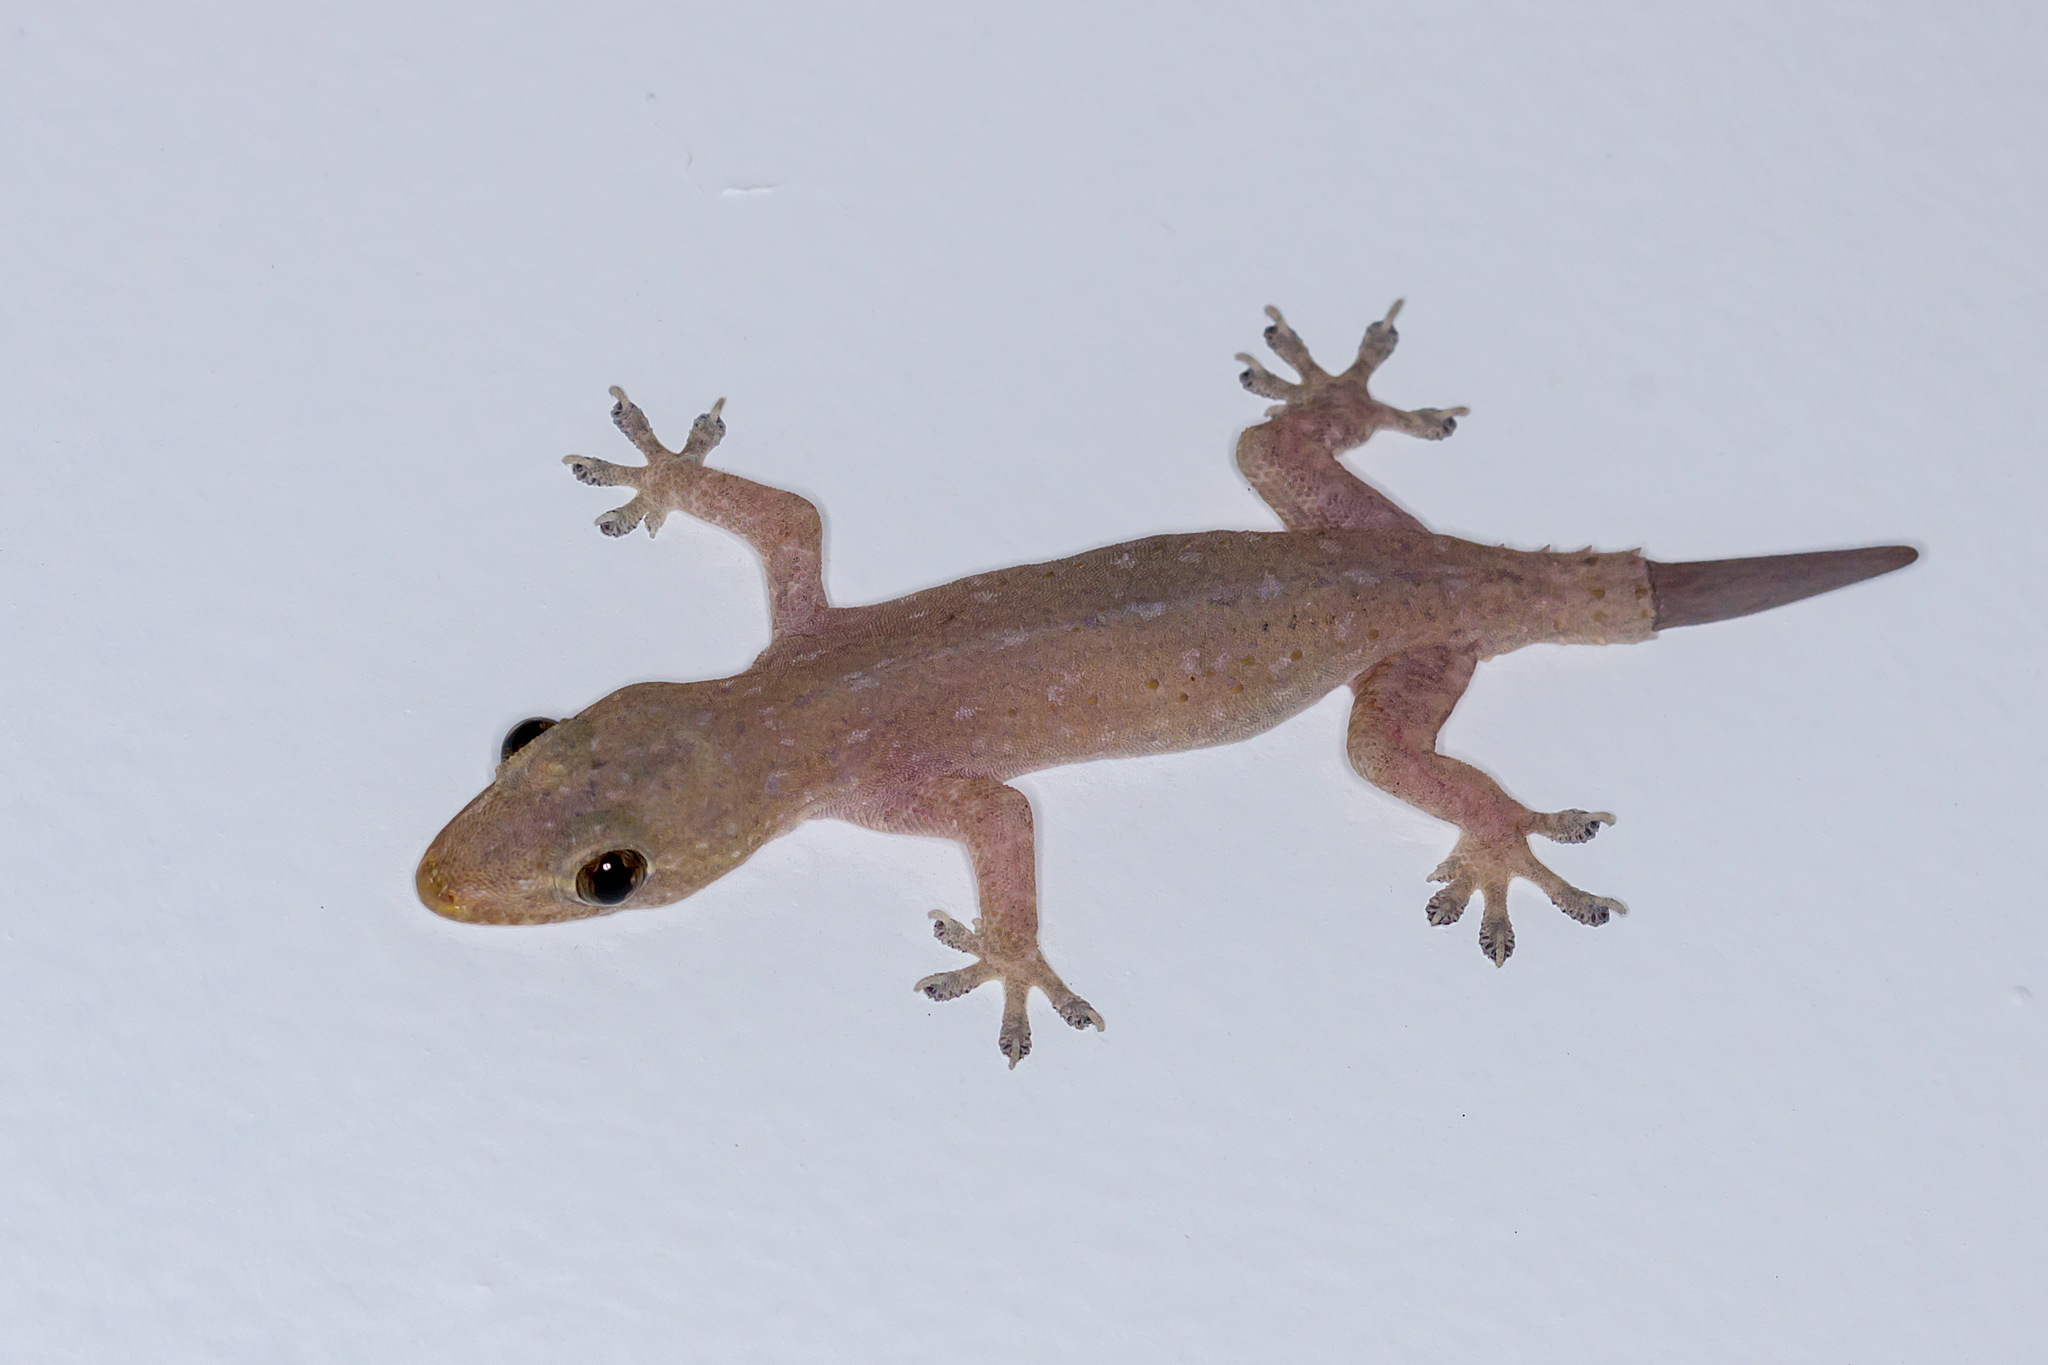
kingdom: Animalia
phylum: Chordata
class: Squamata
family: Gekkonidae
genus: Hemidactylus
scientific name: Hemidactylus frenatus
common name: Common house gecko
